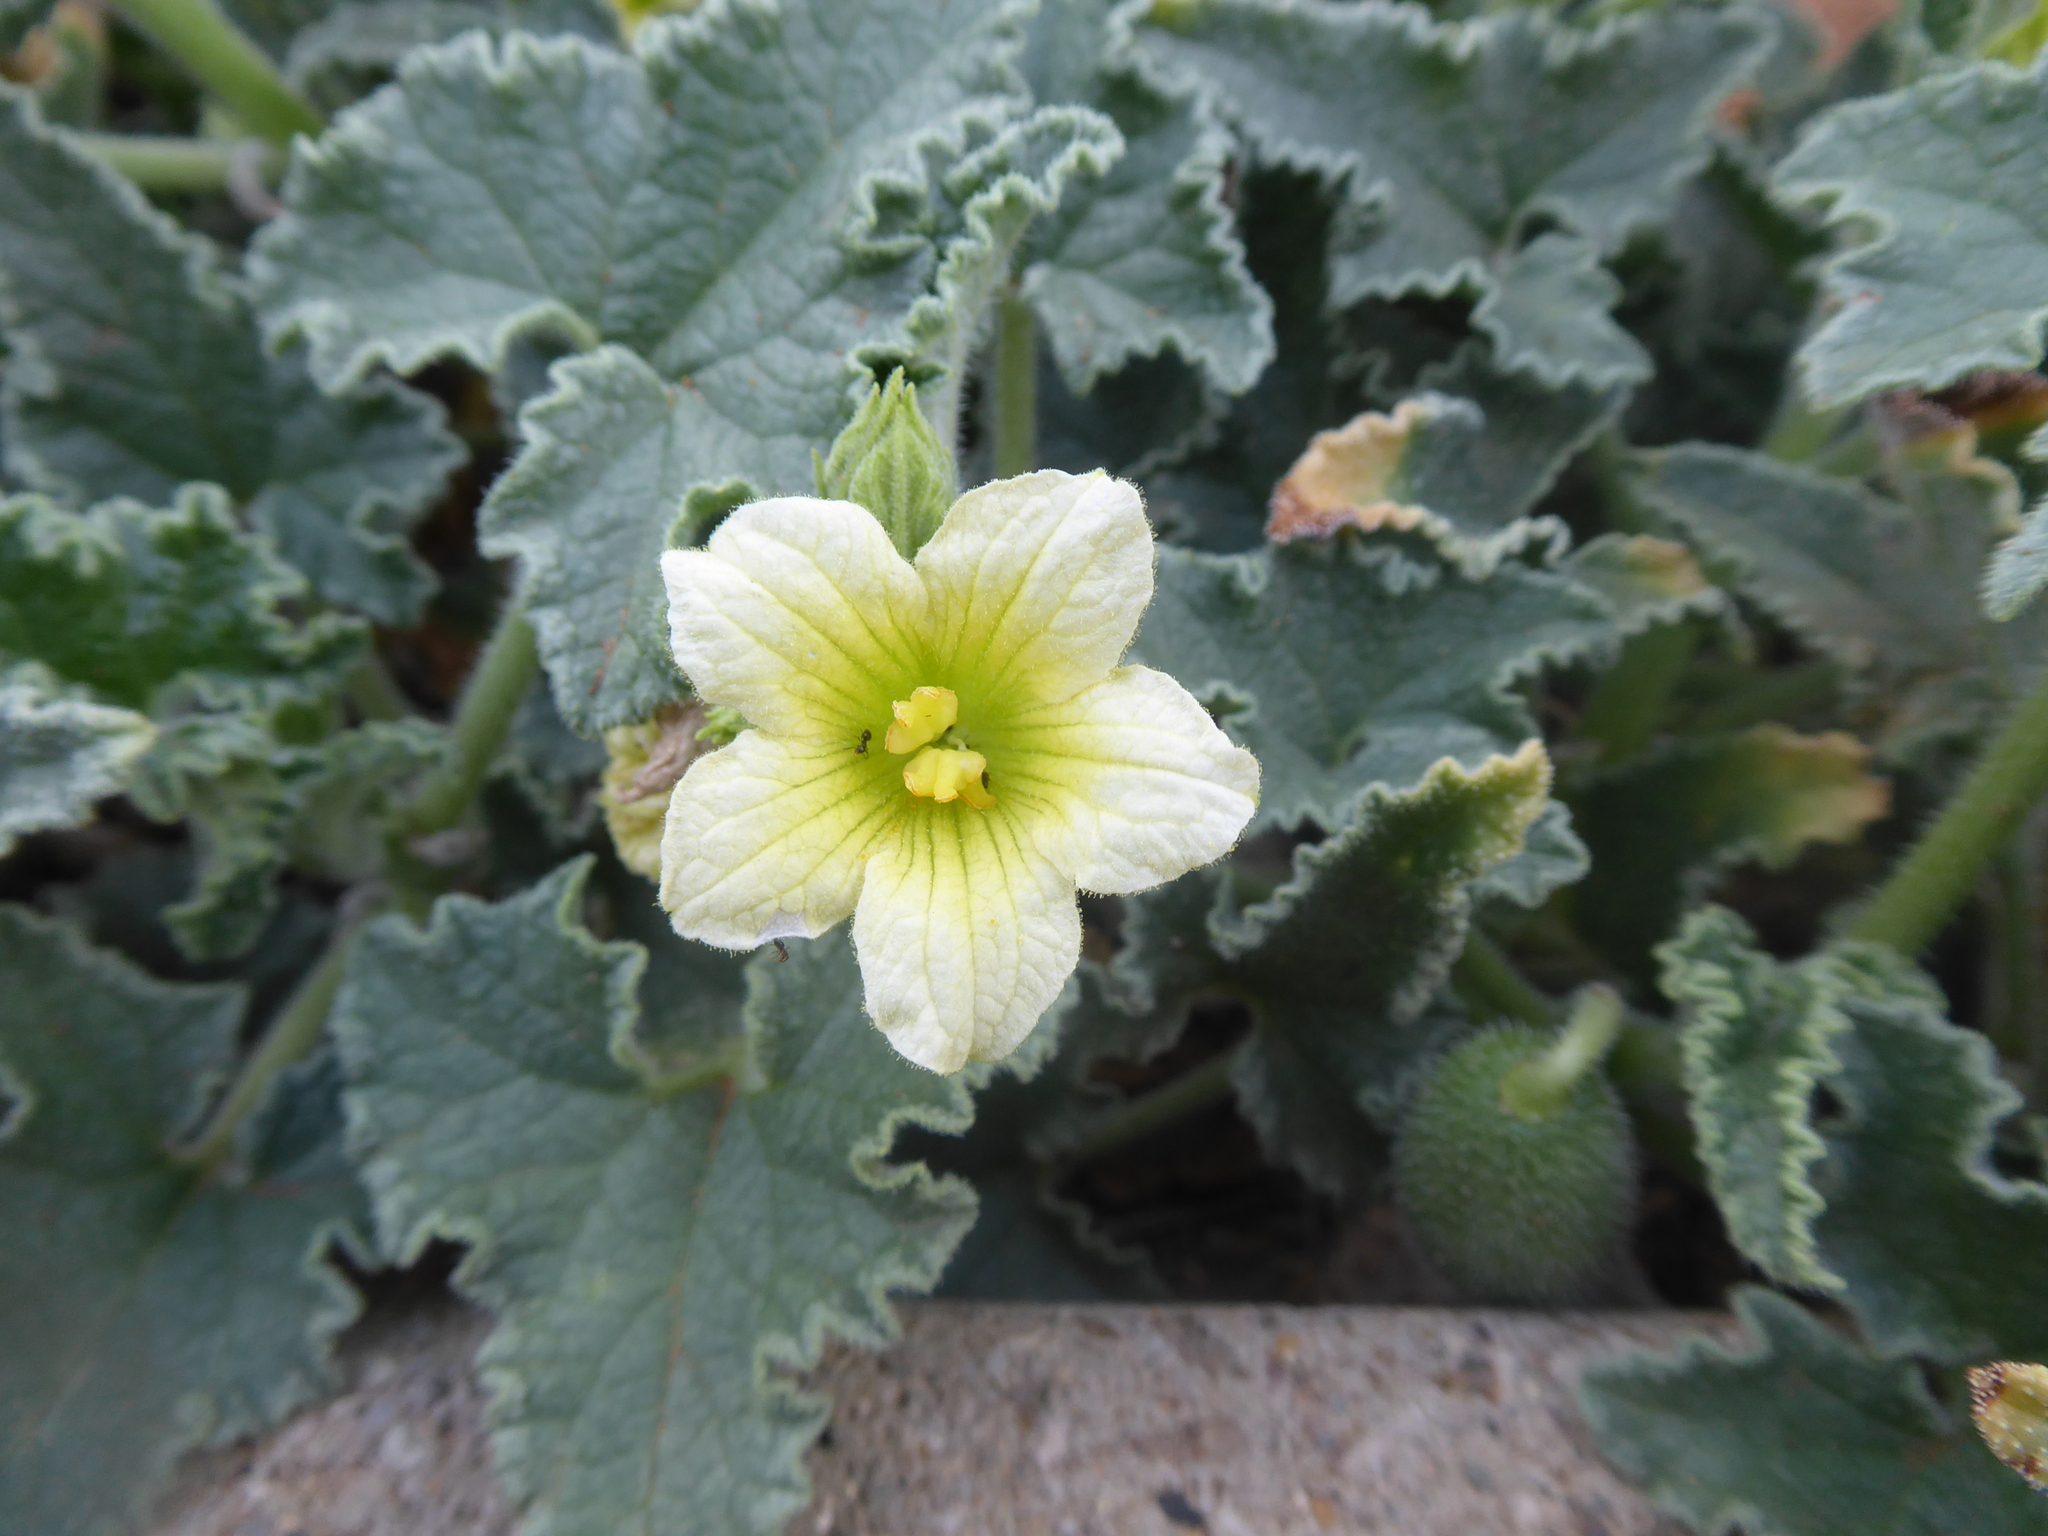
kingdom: Plantae
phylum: Tracheophyta
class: Magnoliopsida
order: Cucurbitales
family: Cucurbitaceae
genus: Ecballium
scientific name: Ecballium elaterium
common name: Squirting cucumber
